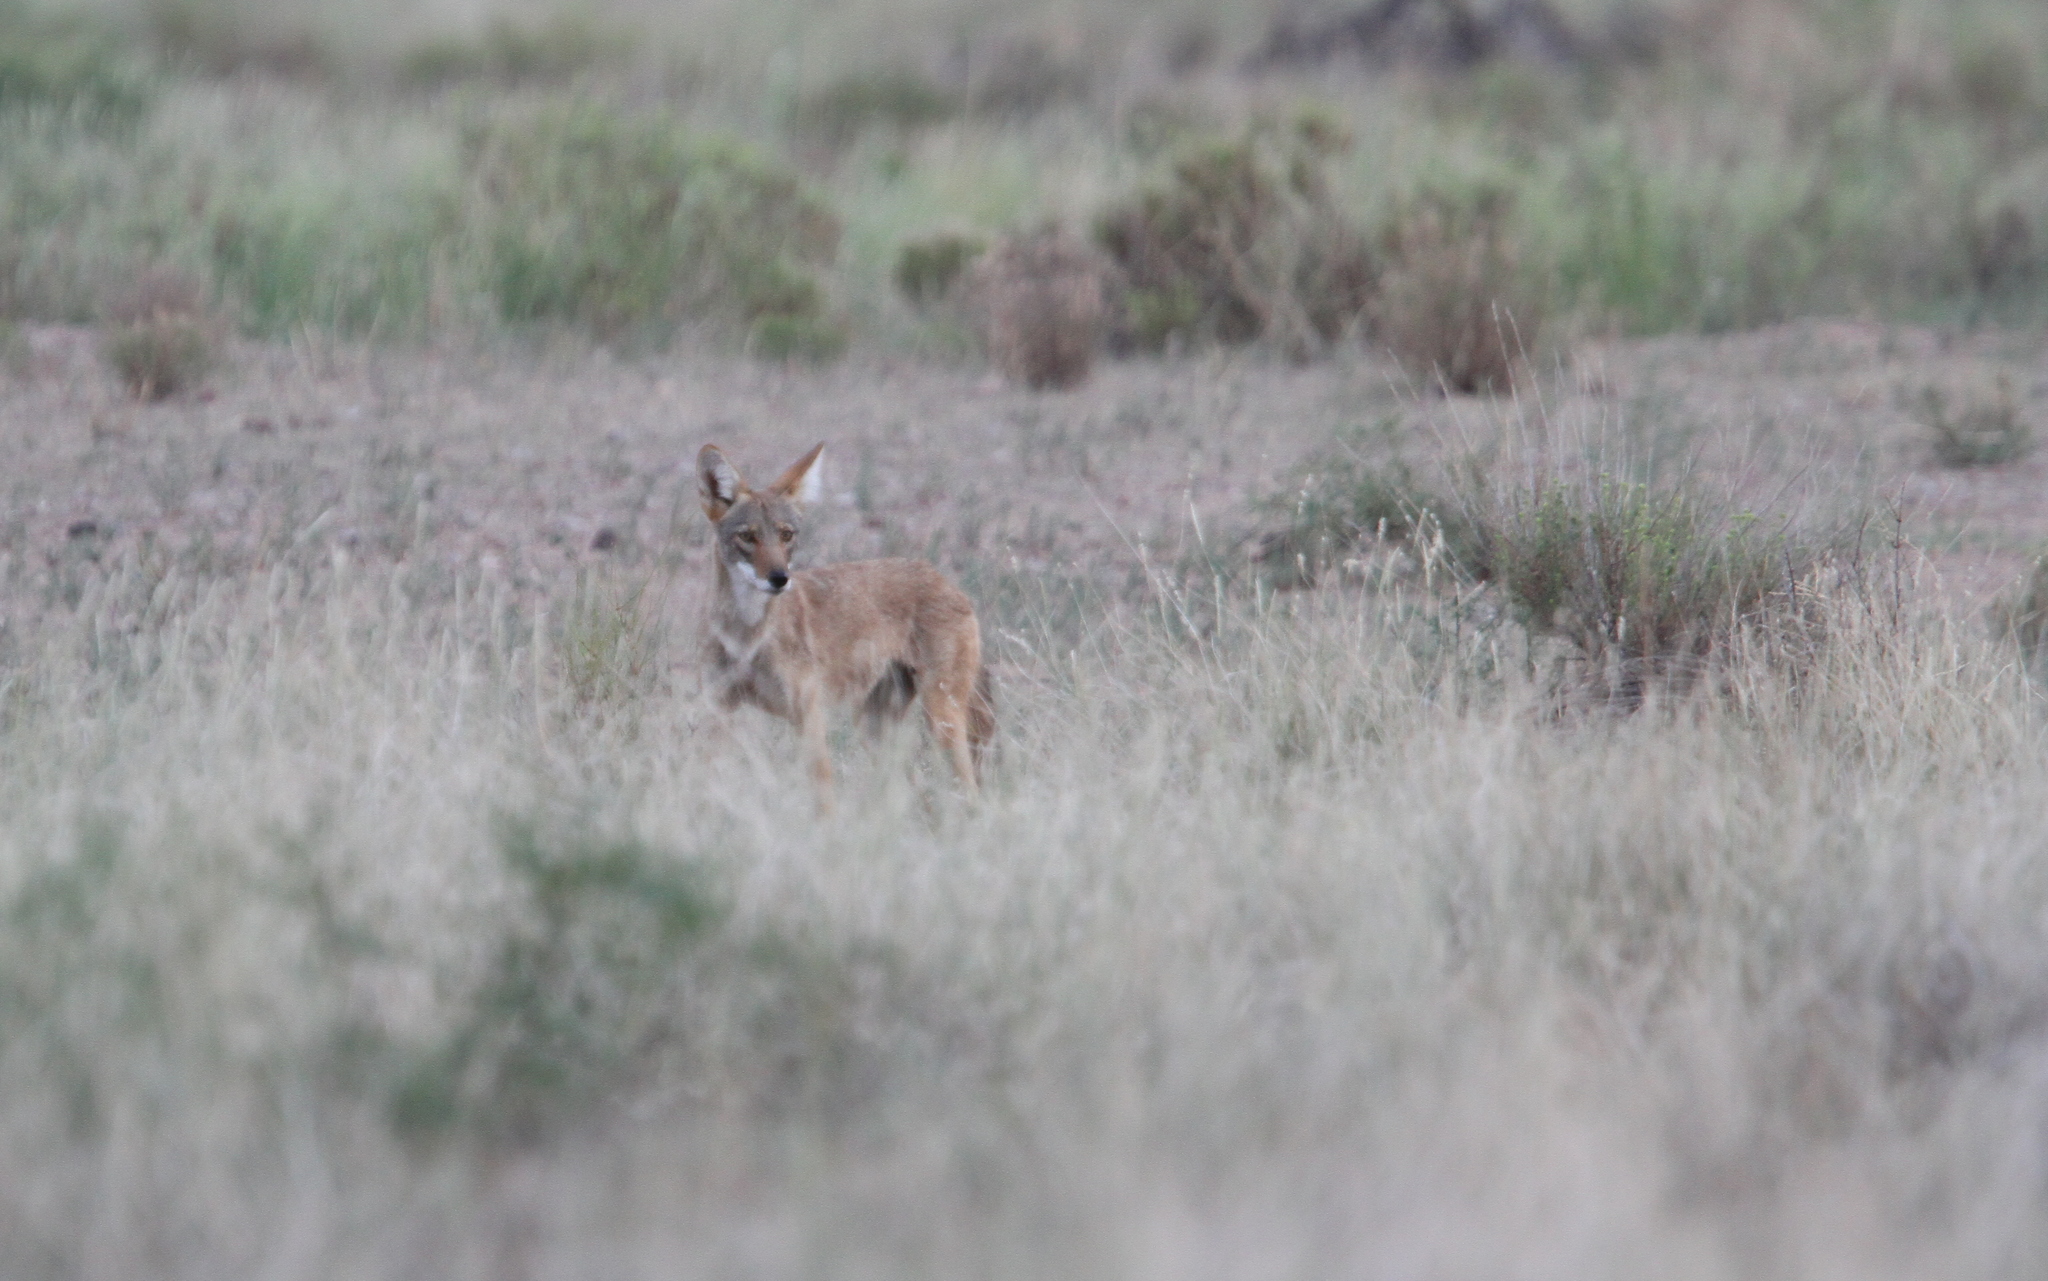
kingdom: Animalia
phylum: Chordata
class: Mammalia
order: Carnivora
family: Canidae
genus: Canis
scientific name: Canis latrans
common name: Coyote
